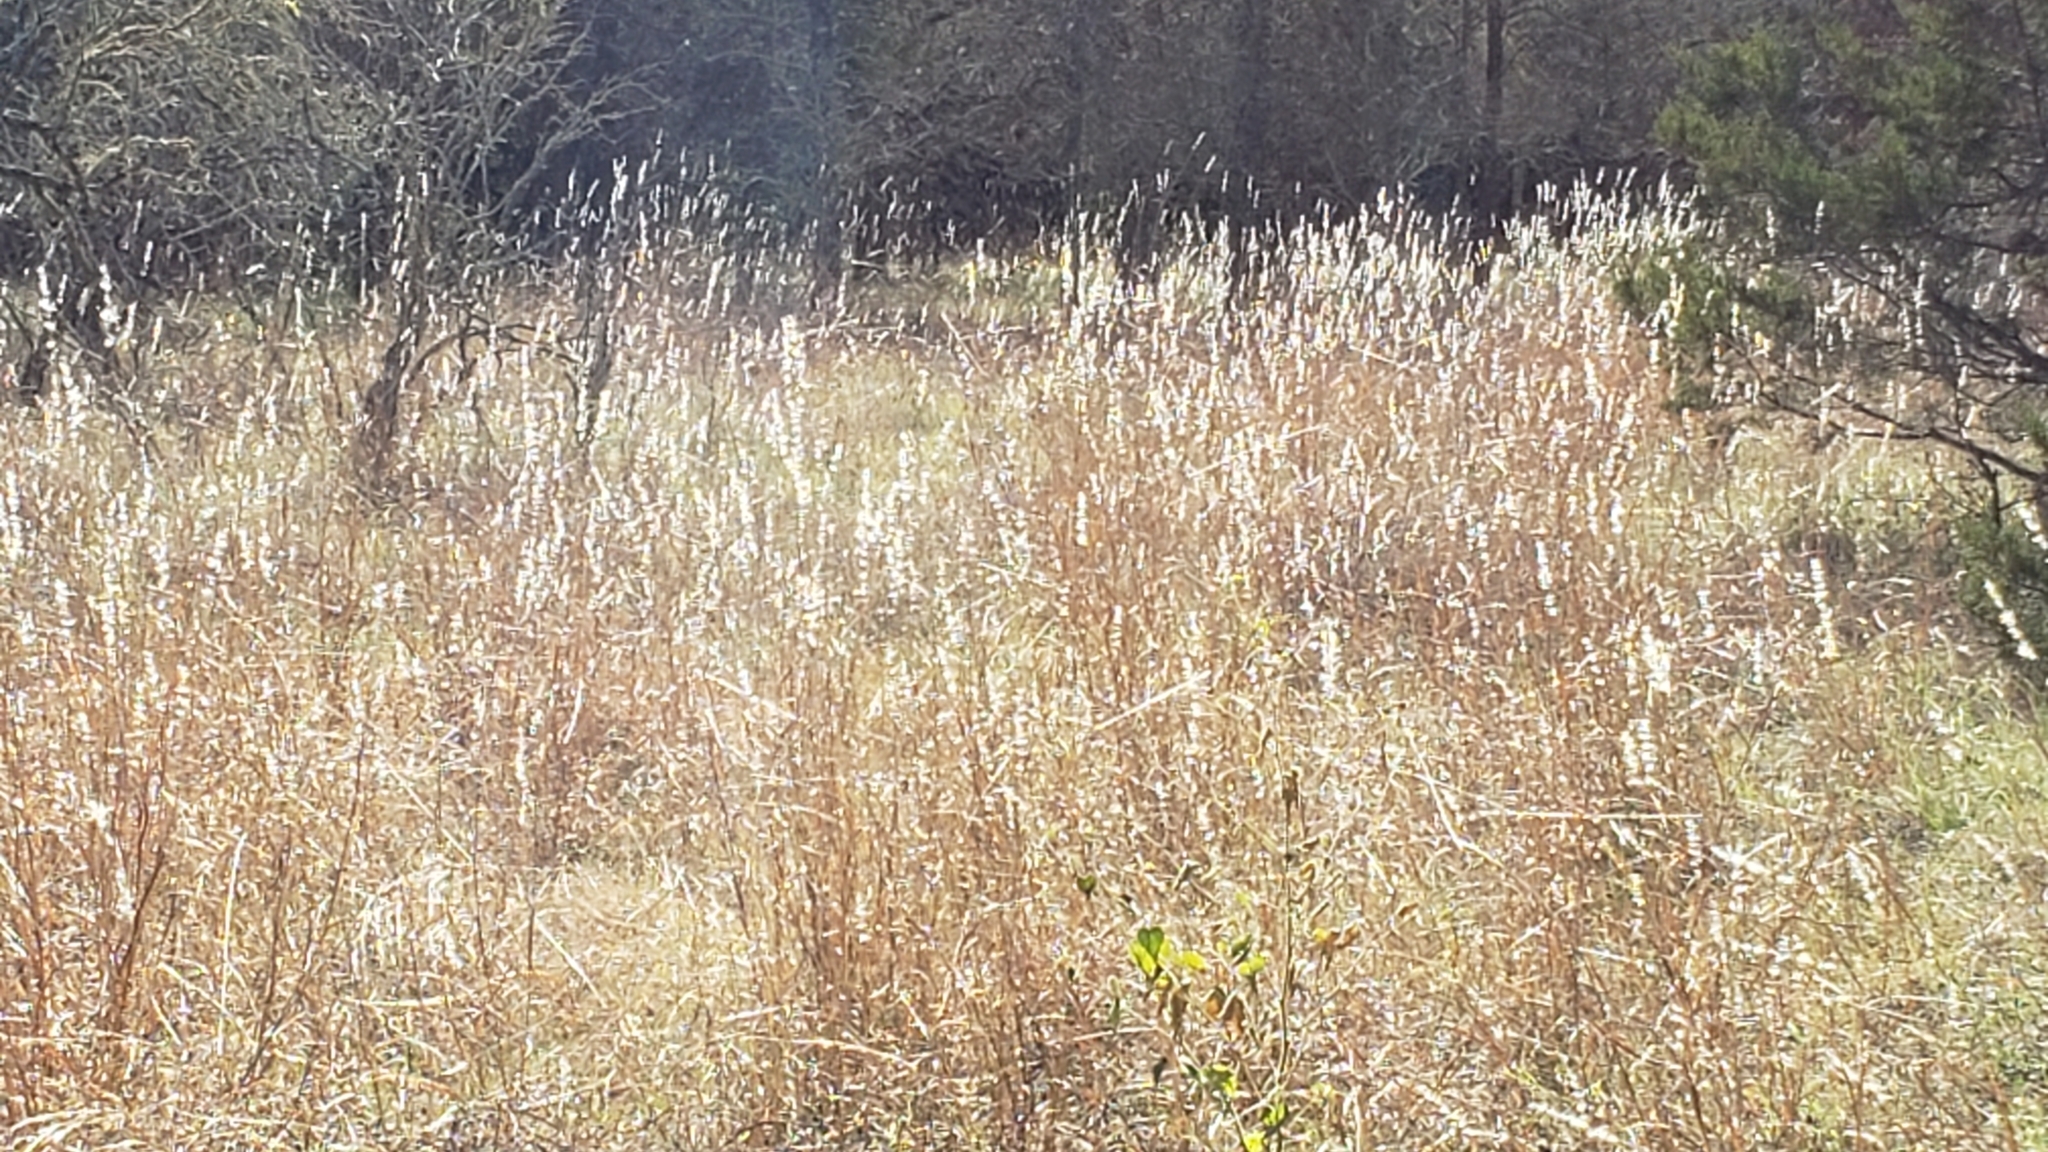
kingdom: Plantae
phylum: Tracheophyta
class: Liliopsida
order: Poales
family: Poaceae
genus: Bothriochloa
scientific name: Bothriochloa torreyana
